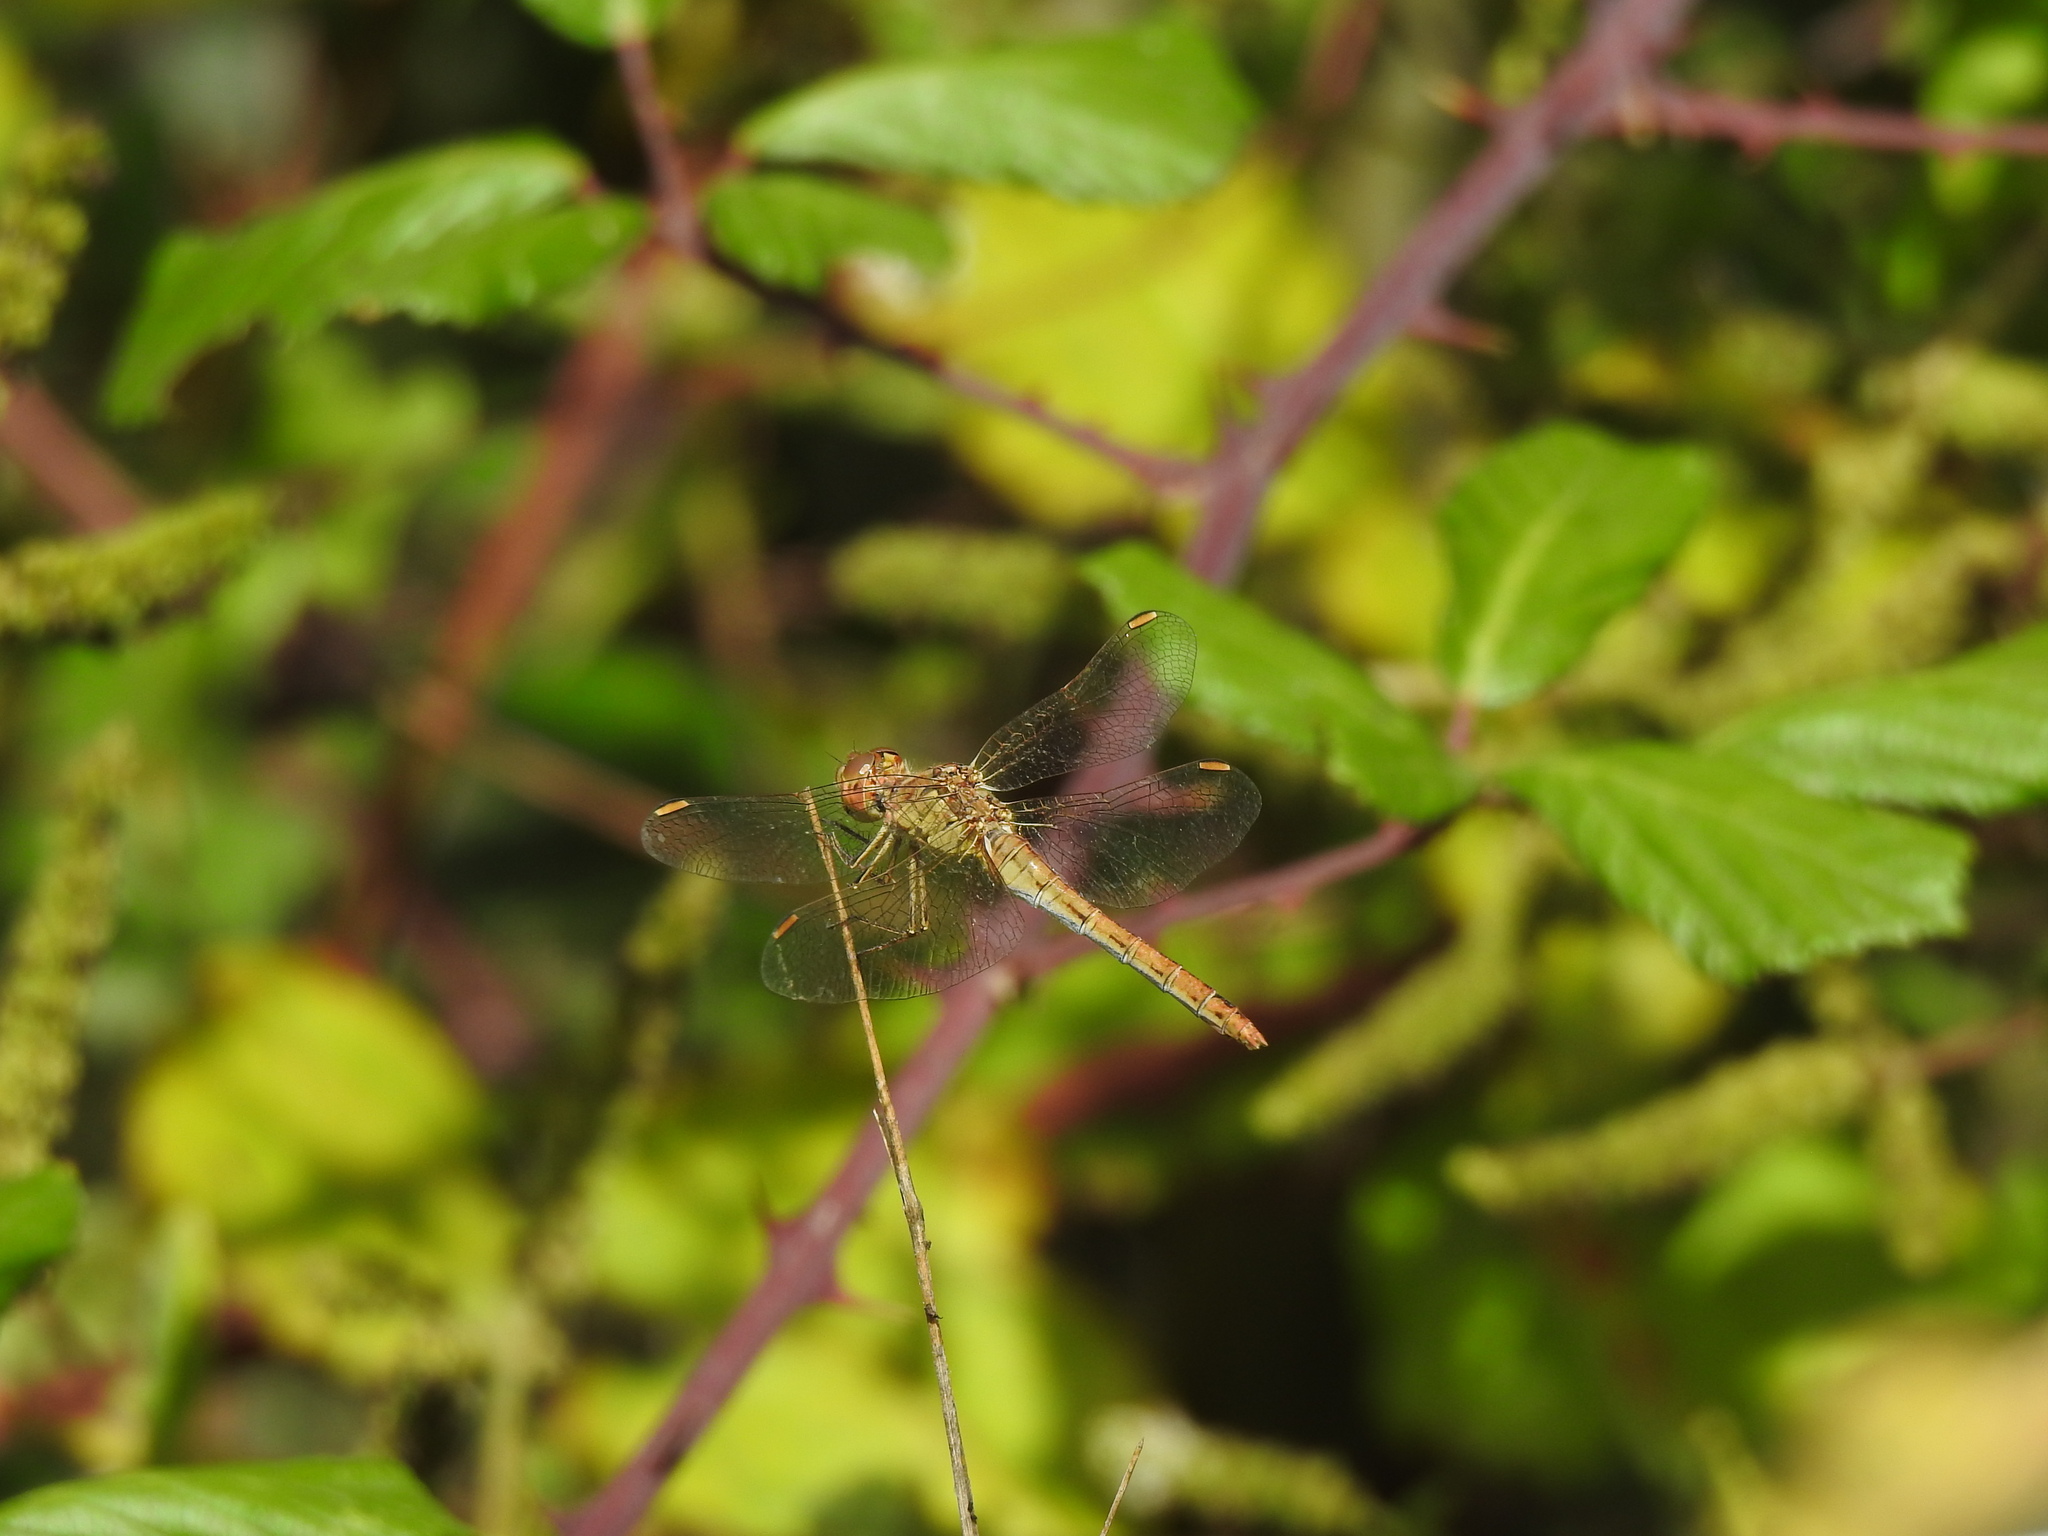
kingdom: Animalia
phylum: Arthropoda
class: Insecta
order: Odonata
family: Libellulidae
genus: Sympetrum
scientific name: Sympetrum meridionale
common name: Southern darter
